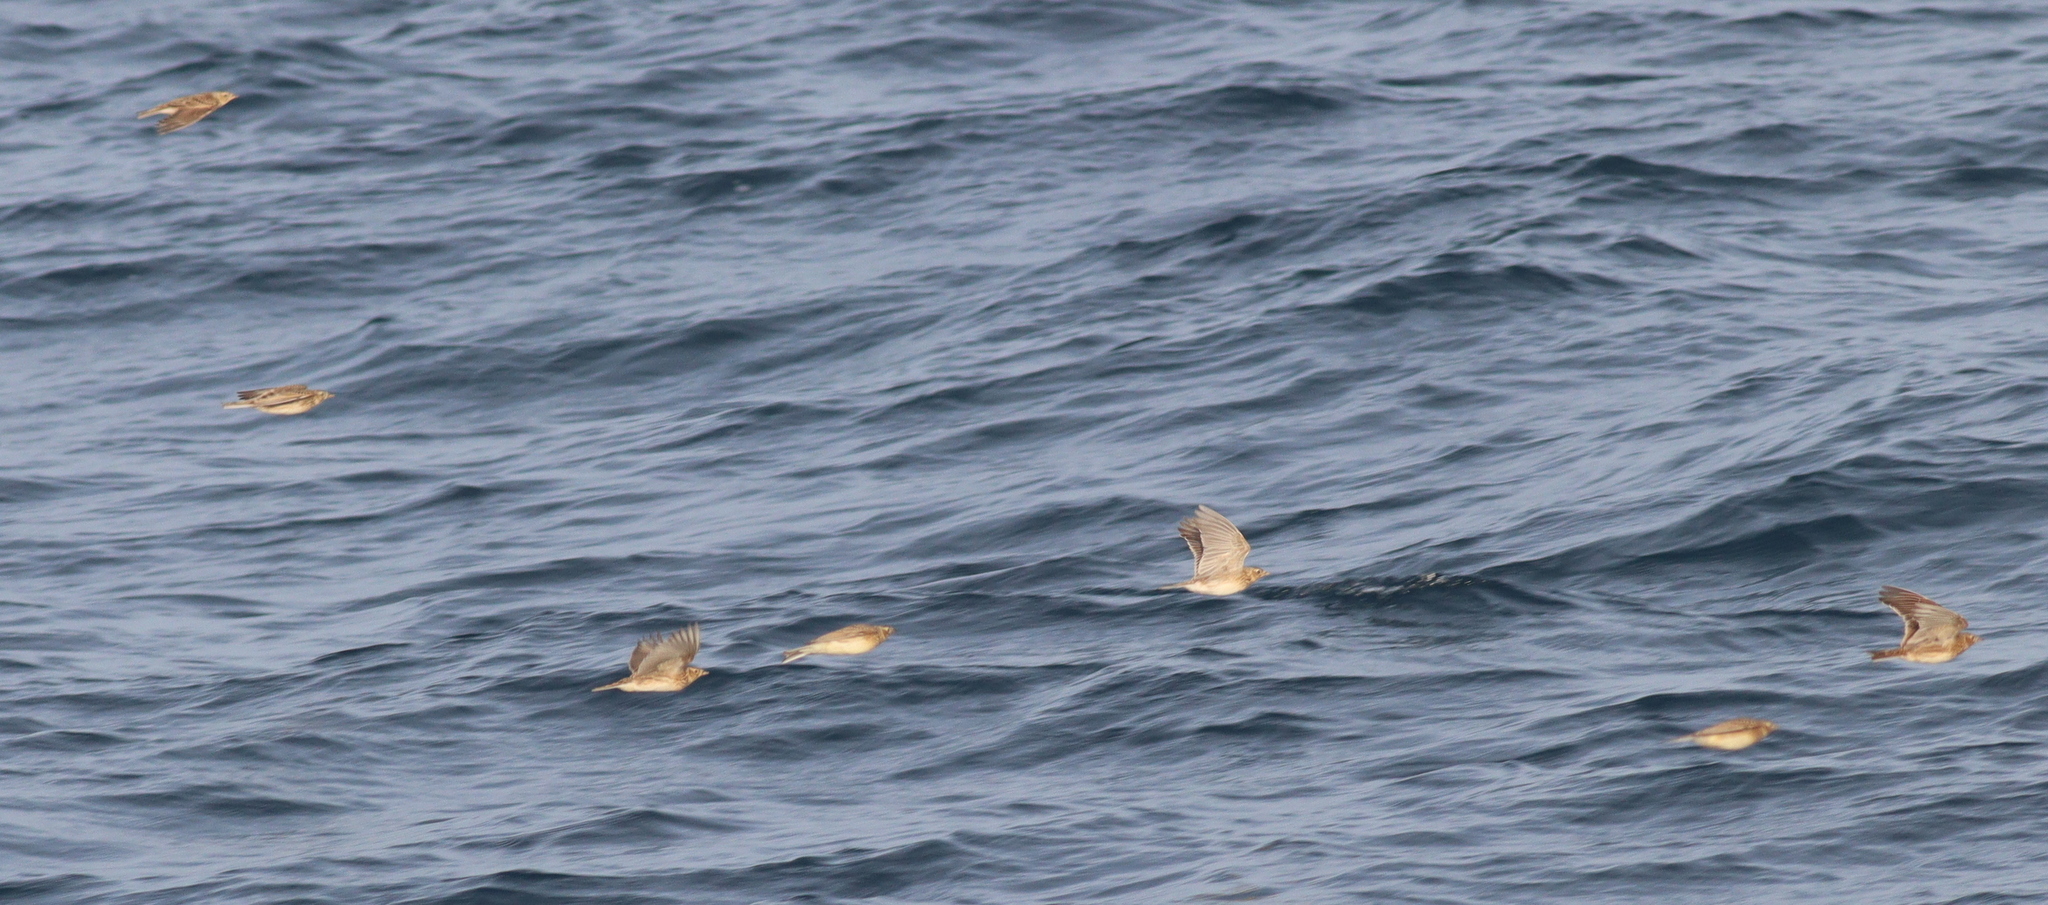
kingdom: Animalia
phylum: Chordata
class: Aves
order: Passeriformes
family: Alaudidae
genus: Alauda
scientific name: Alauda arvensis
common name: Eurasian skylark
